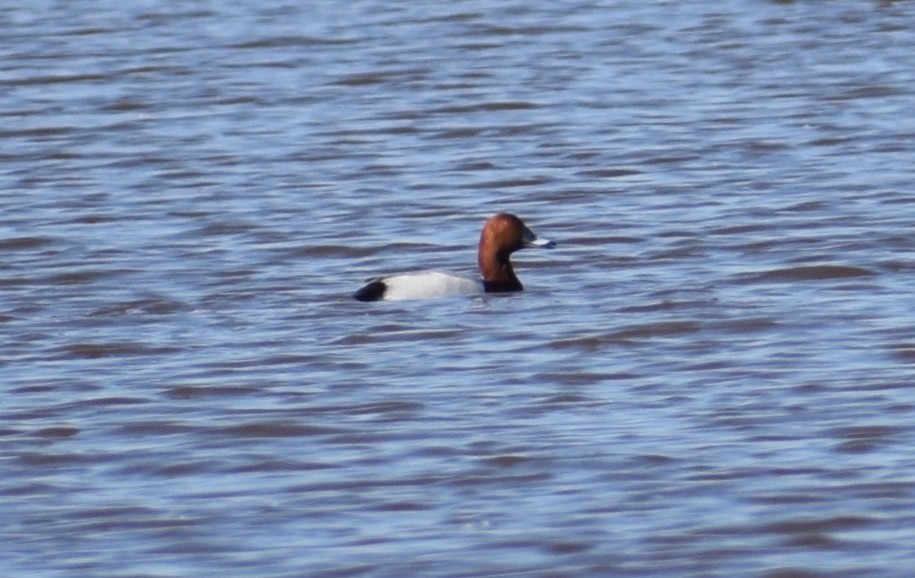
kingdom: Animalia
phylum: Chordata
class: Aves
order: Anseriformes
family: Anatidae
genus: Aythya
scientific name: Aythya ferina
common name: Common pochard
